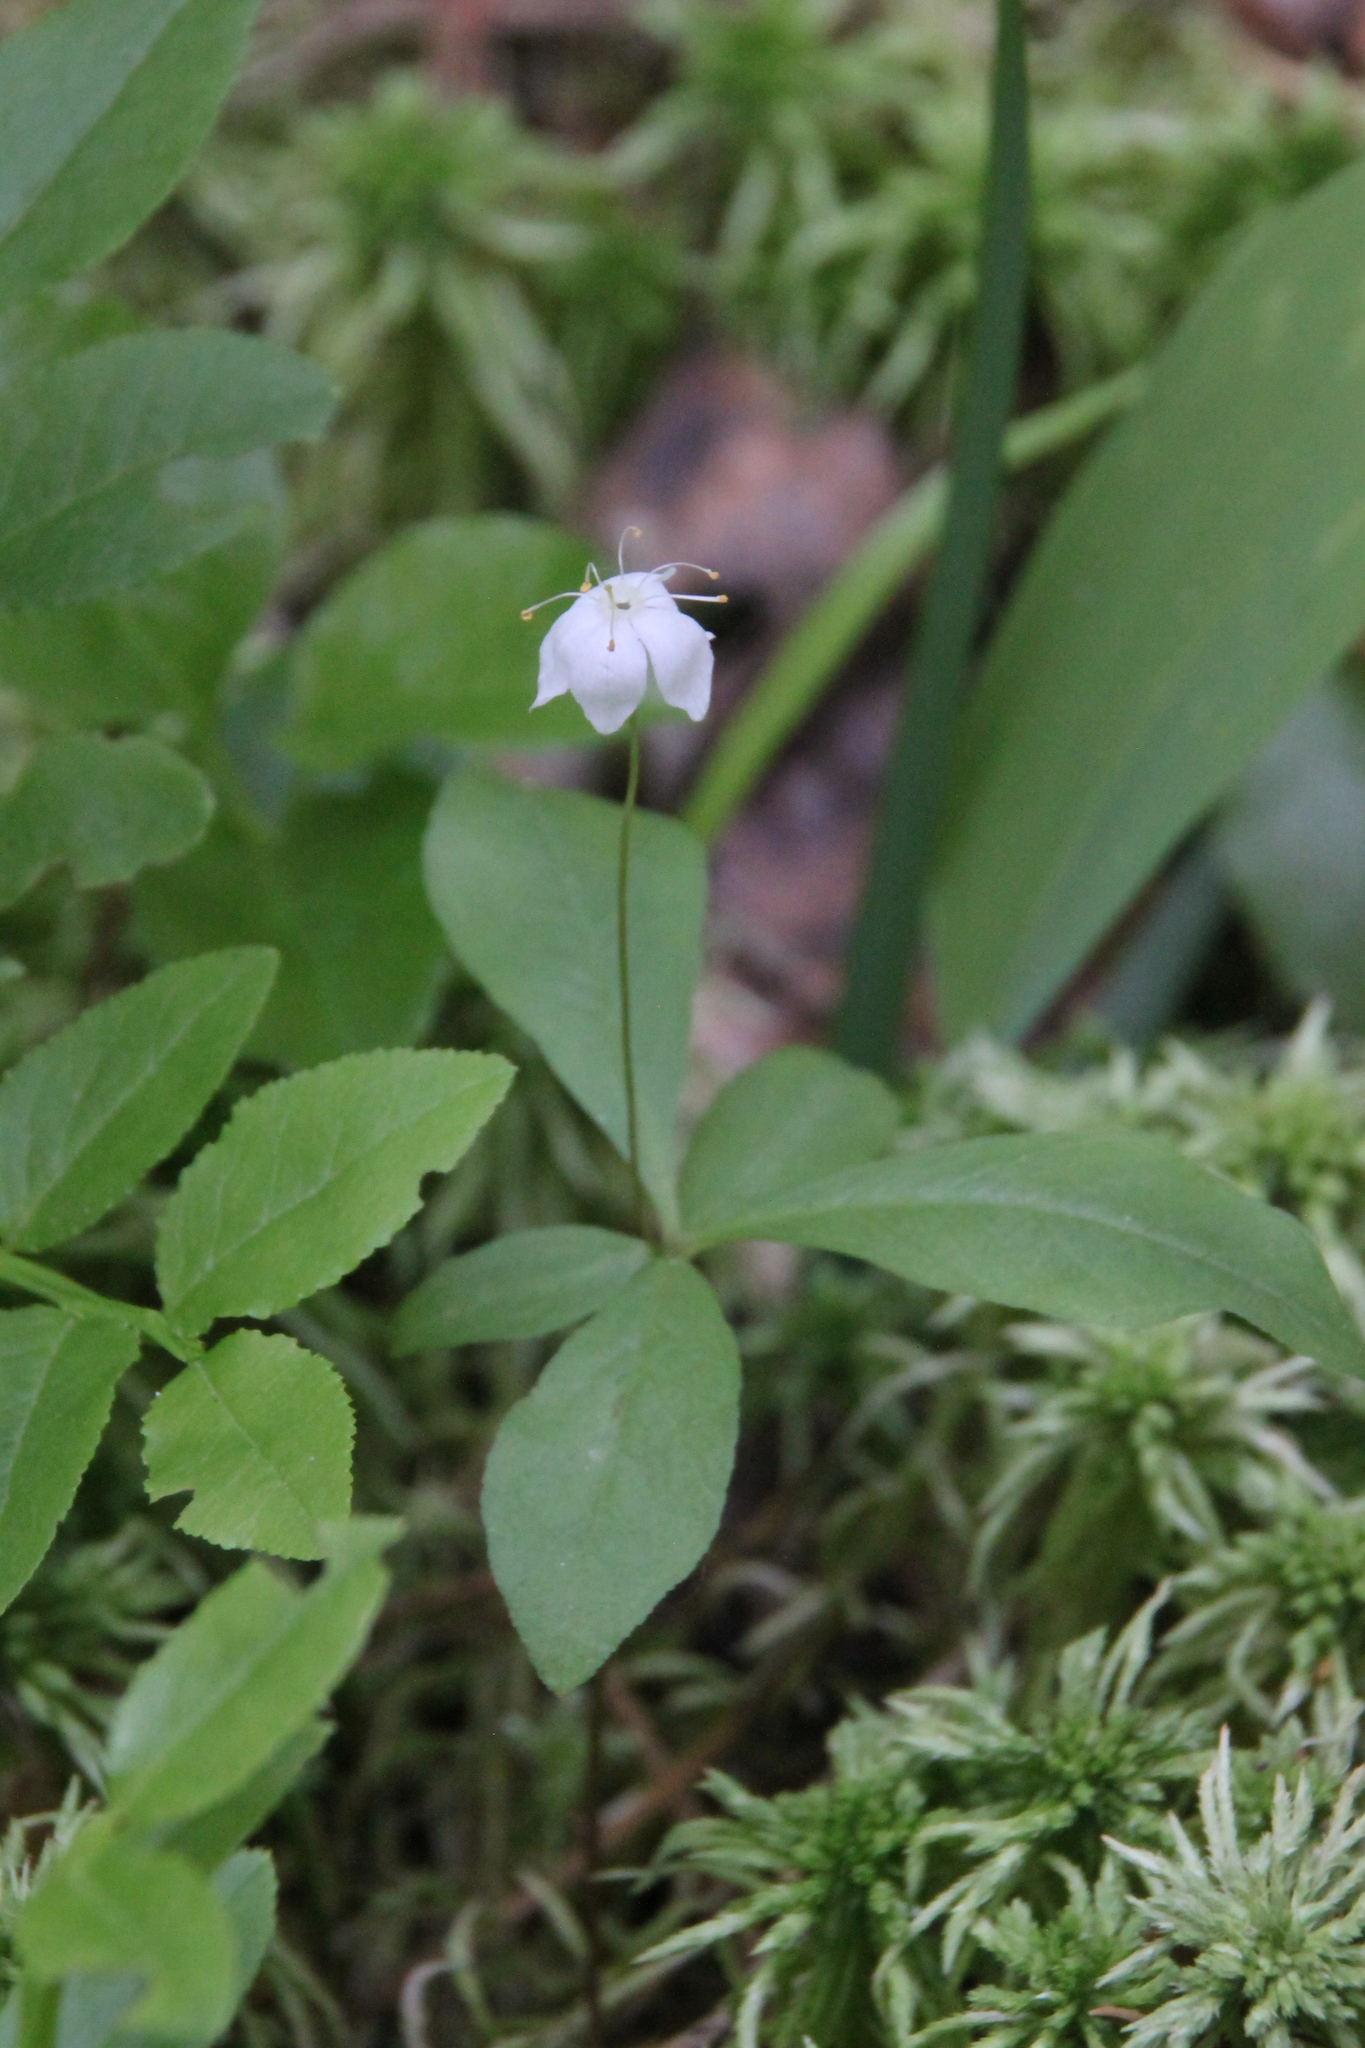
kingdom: Plantae
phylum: Tracheophyta
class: Magnoliopsida
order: Ericales
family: Primulaceae
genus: Lysimachia
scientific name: Lysimachia europaea
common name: Arctic starflower
